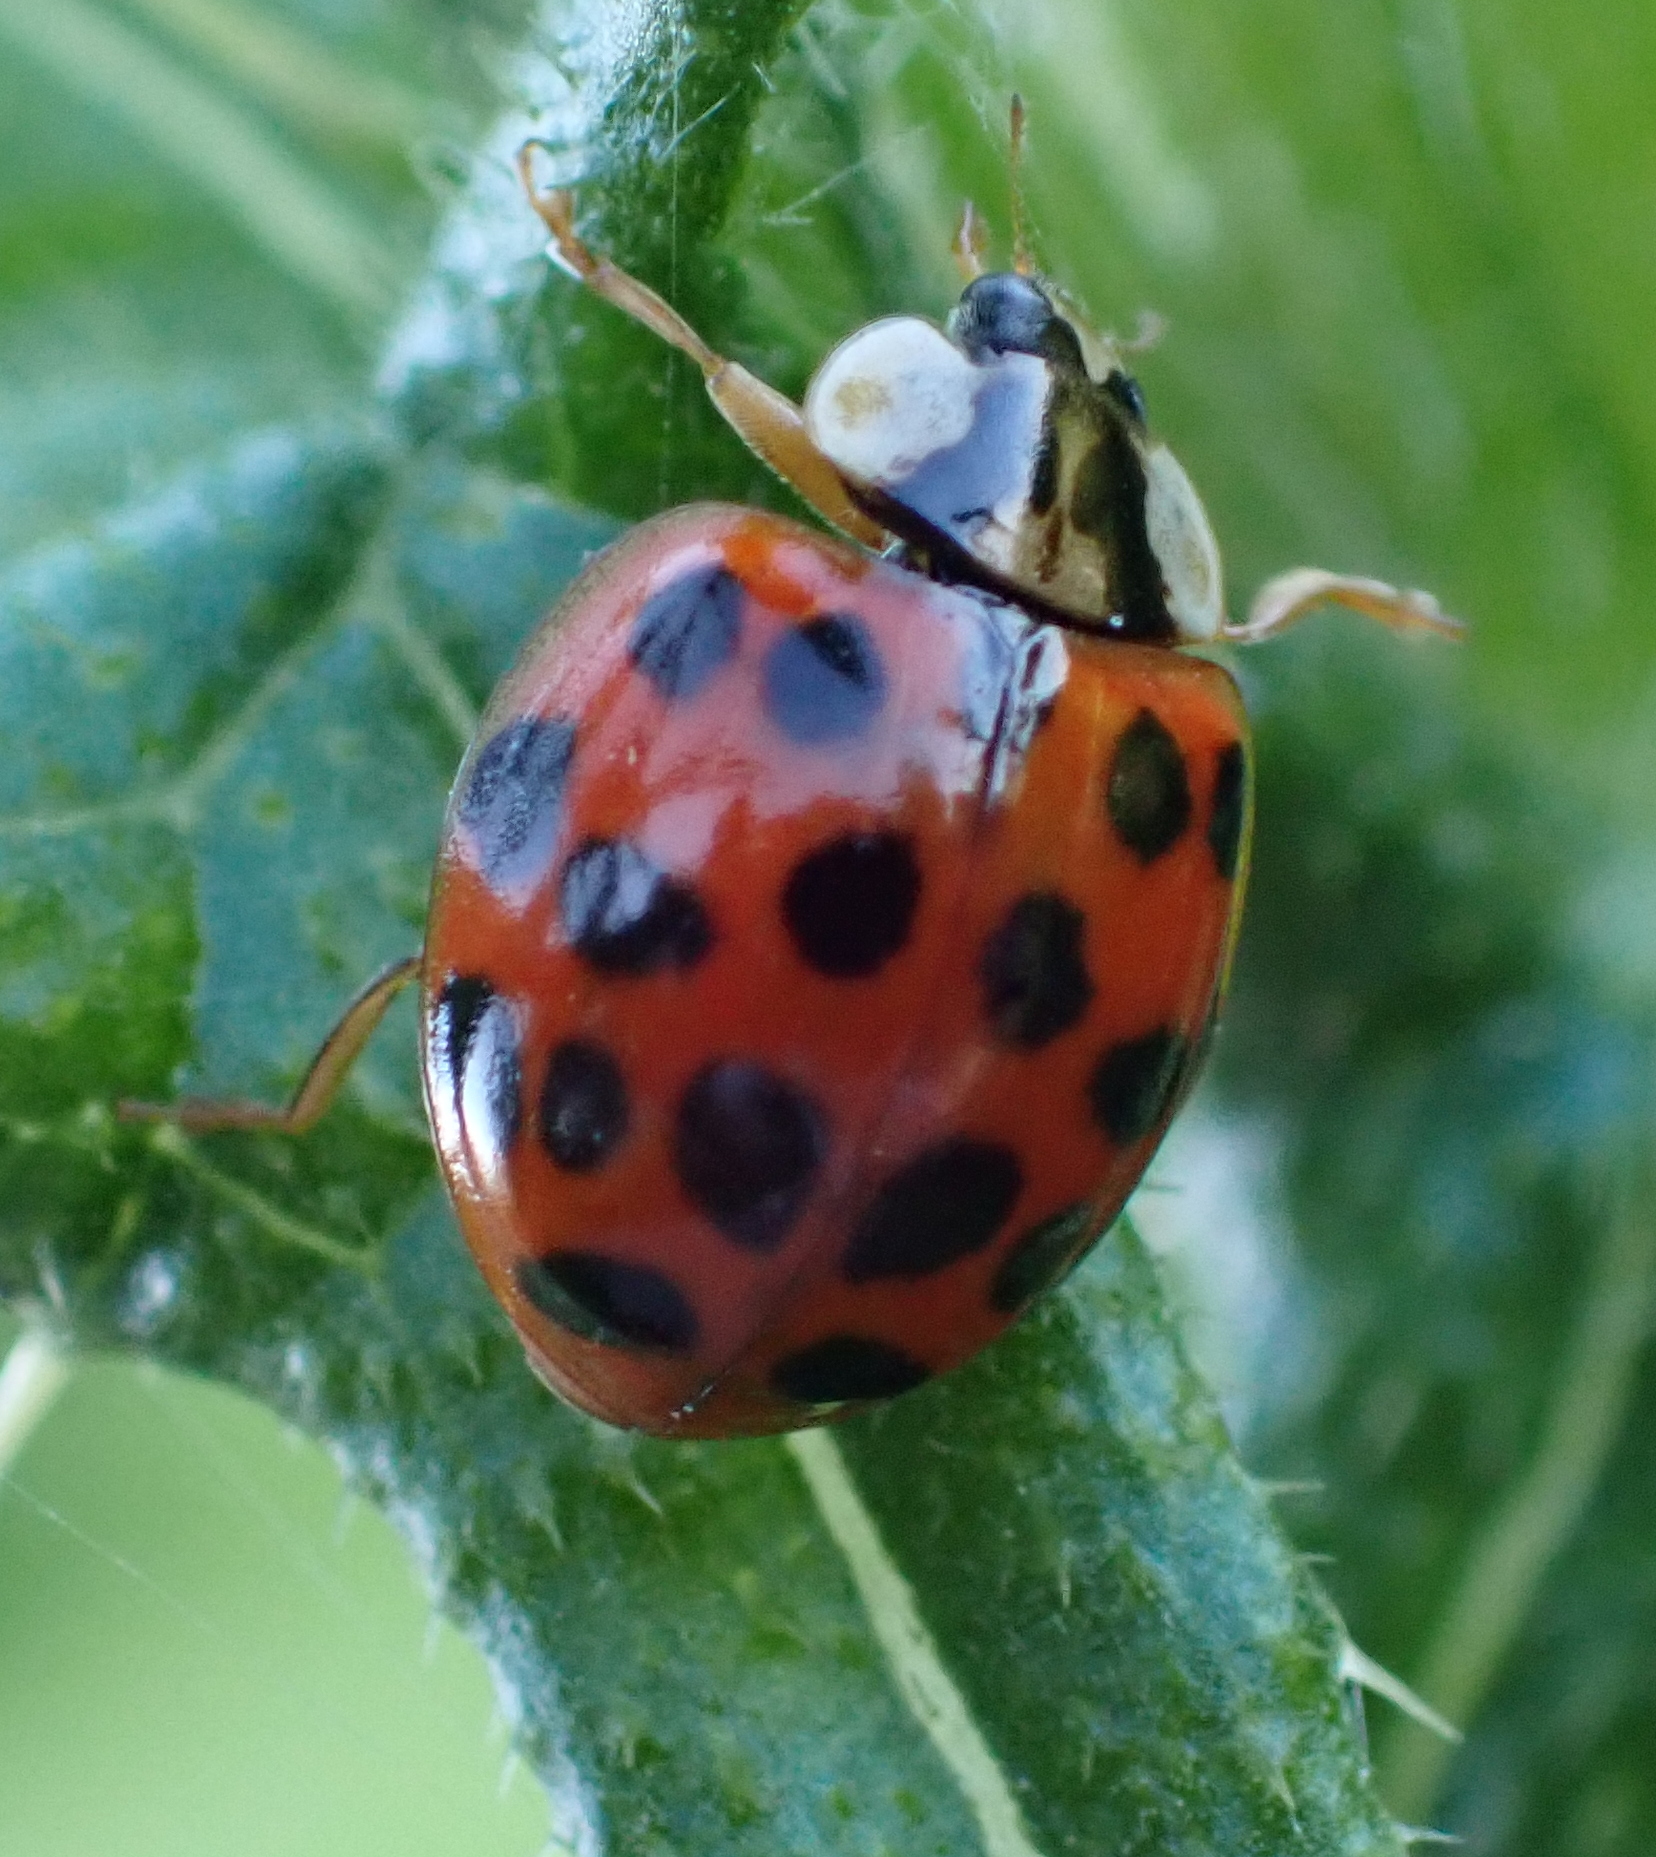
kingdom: Animalia
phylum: Arthropoda
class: Insecta
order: Coleoptera
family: Coccinellidae
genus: Harmonia
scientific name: Harmonia axyridis
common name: Harlequin ladybird
